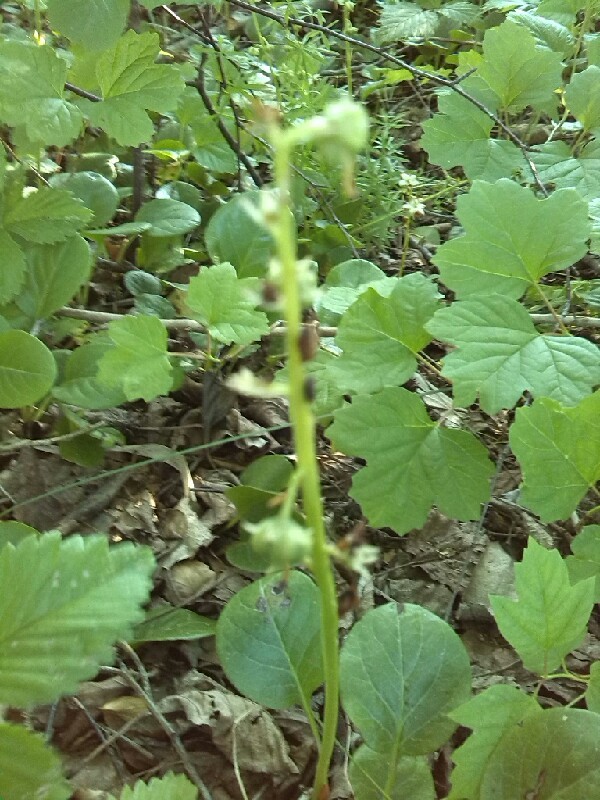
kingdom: Plantae
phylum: Tracheophyta
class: Magnoliopsida
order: Ericales
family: Ericaceae
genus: Pyrola
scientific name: Pyrola rotundifolia
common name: Round-leaved wintergreen
